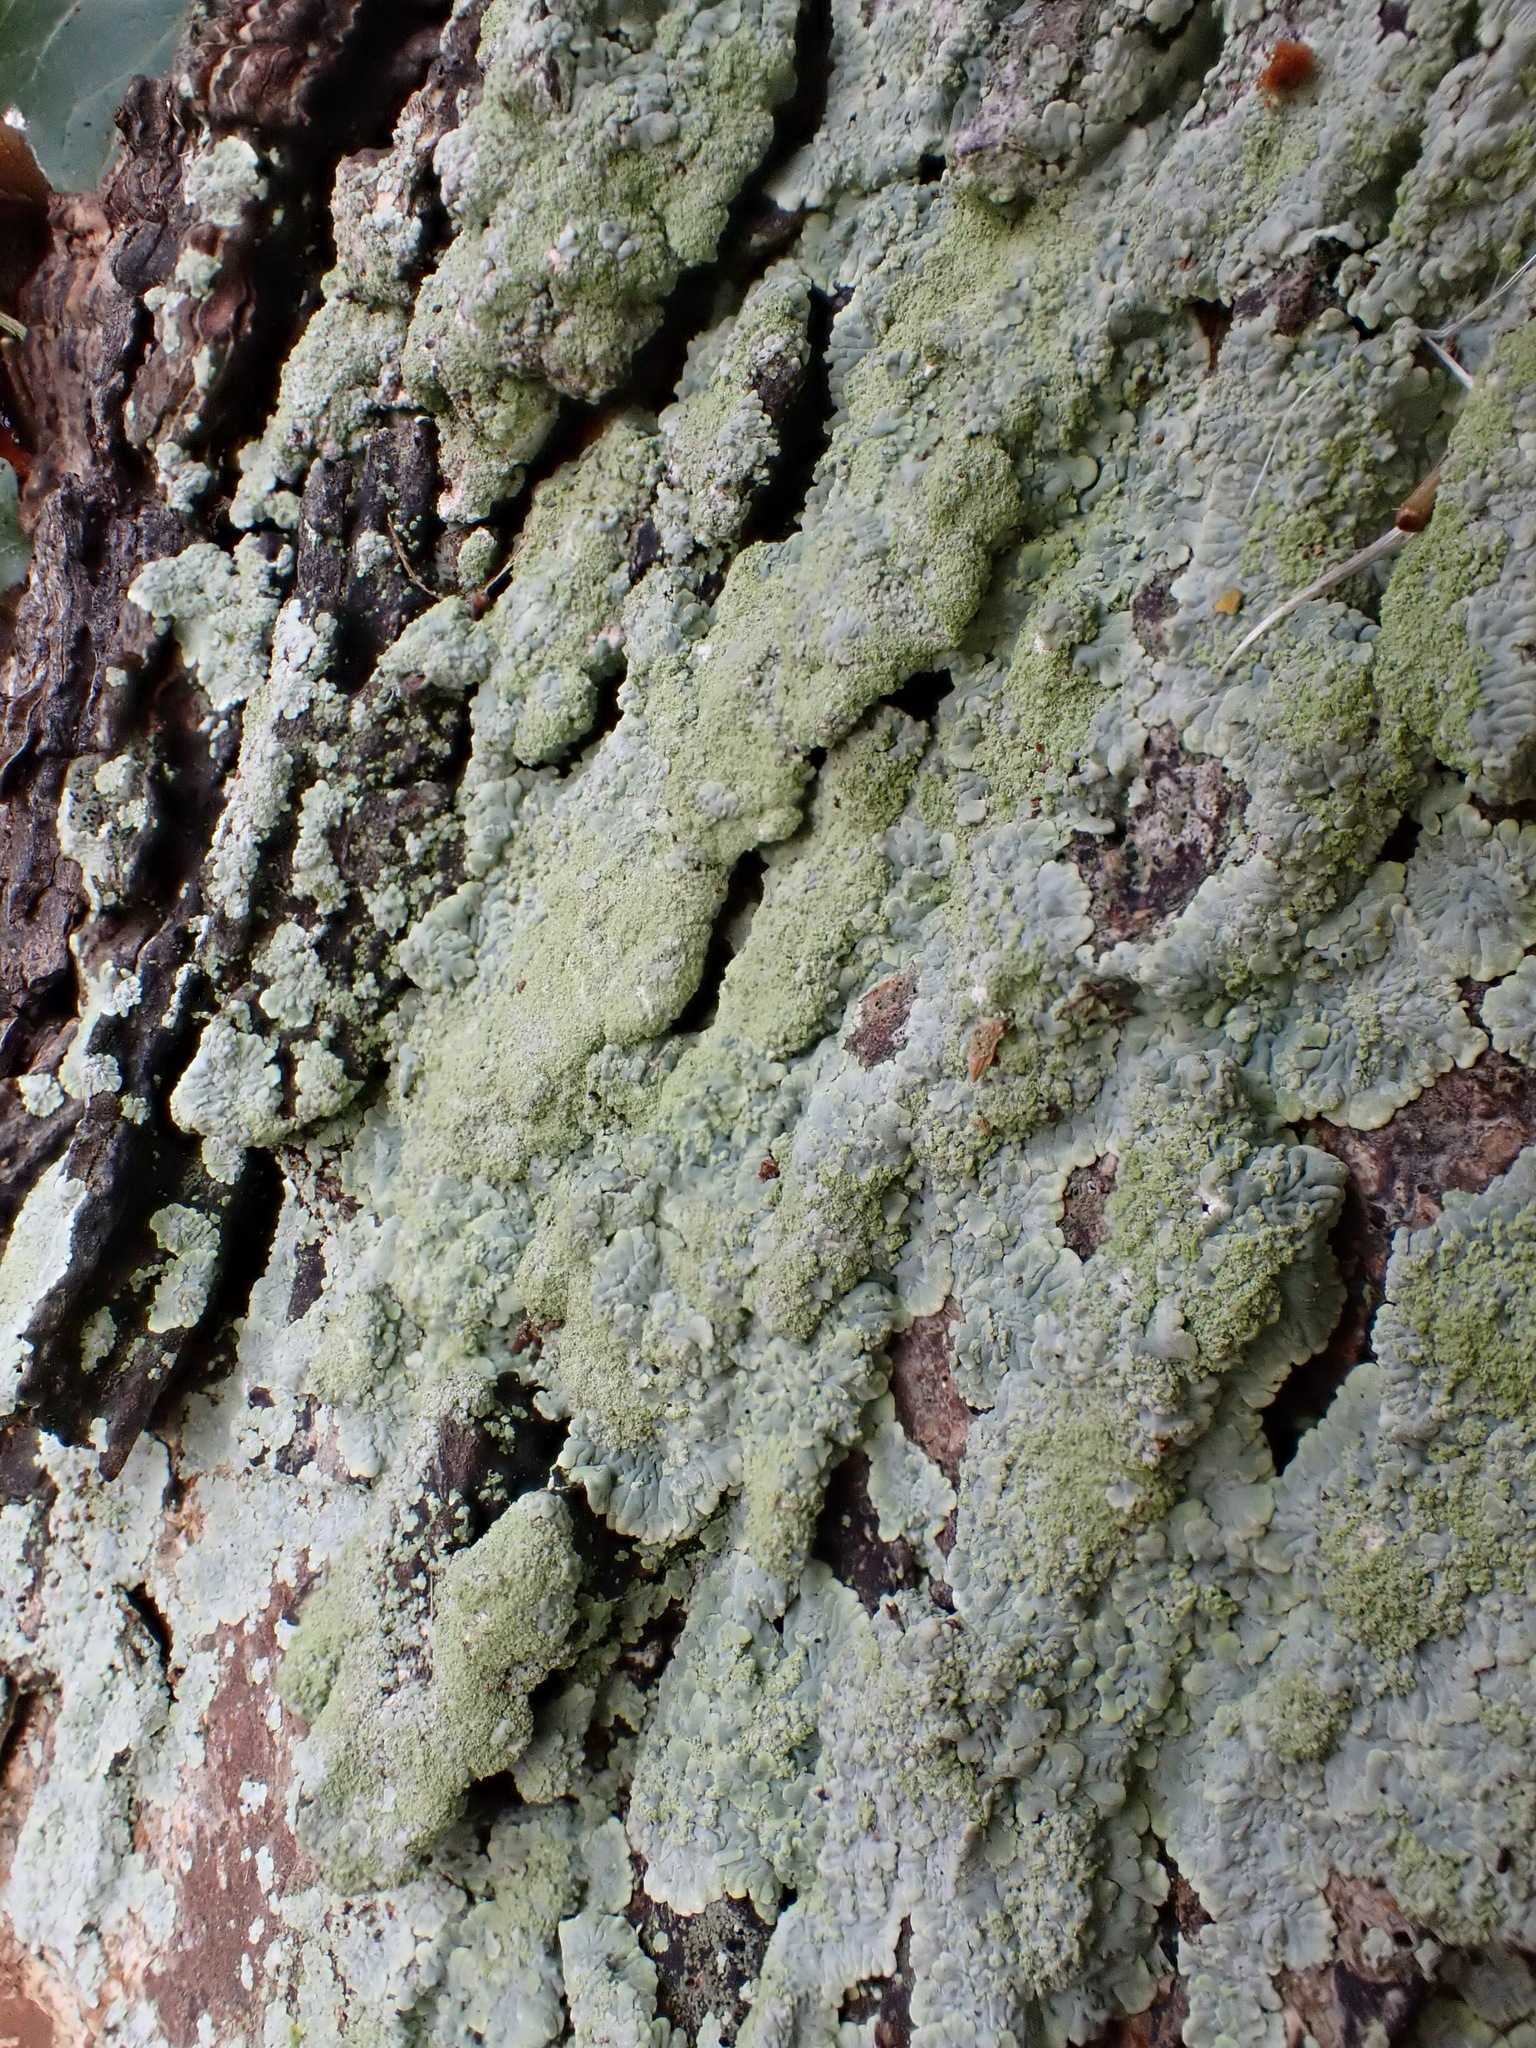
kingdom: Fungi
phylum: Ascomycota
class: Lecanoromycetes
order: Caliciales
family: Caliciaceae
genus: Diploicia
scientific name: Diploicia canescens
